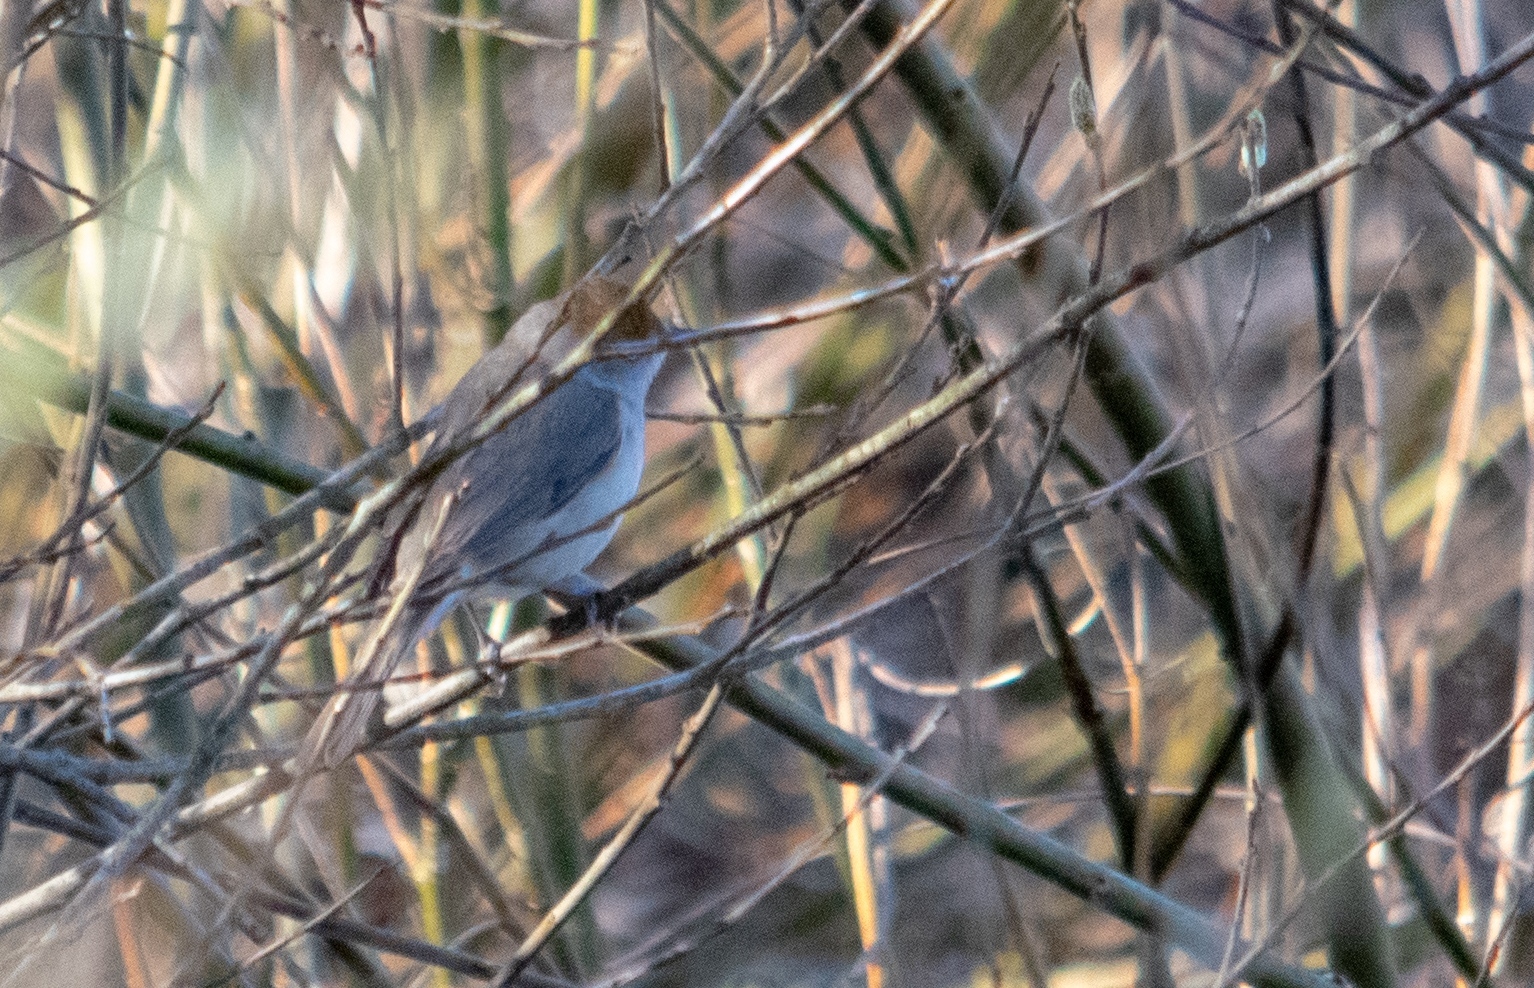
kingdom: Animalia
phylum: Chordata
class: Aves
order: Passeriformes
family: Sylviidae
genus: Sylvia
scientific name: Sylvia atricapilla
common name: Eurasian blackcap
